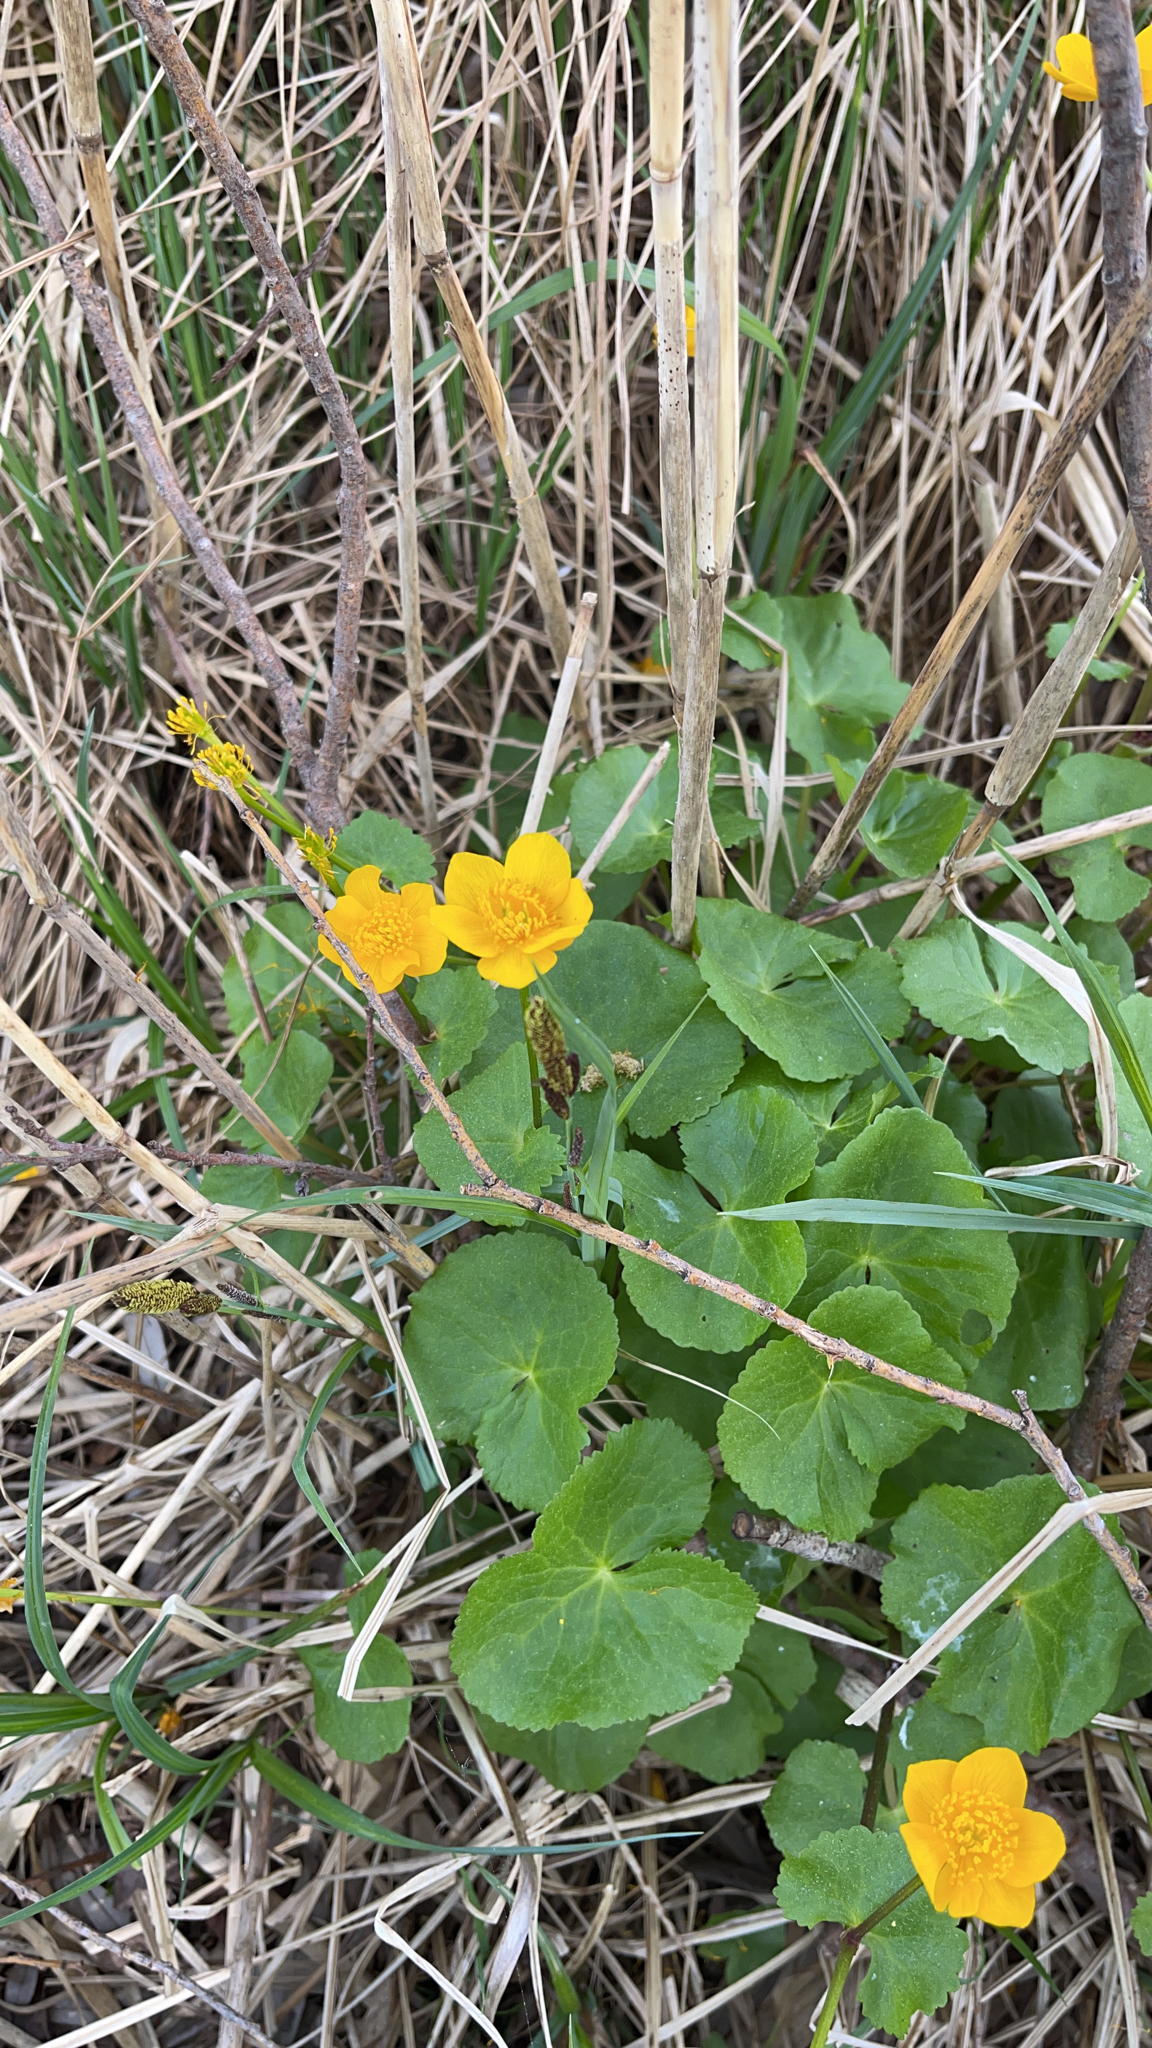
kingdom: Plantae
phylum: Tracheophyta
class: Magnoliopsida
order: Ranunculales
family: Ranunculaceae
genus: Caltha
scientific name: Caltha palustris
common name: Marsh marigold
